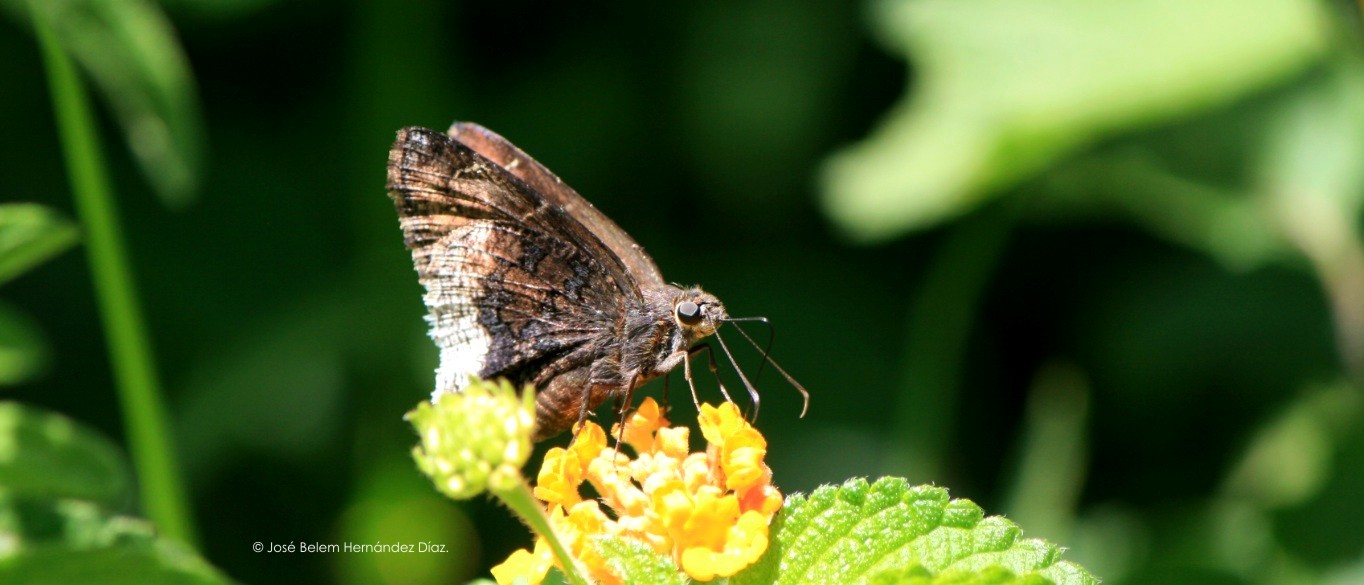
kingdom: Animalia
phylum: Arthropoda
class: Insecta
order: Lepidoptera
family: Hesperiidae
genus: Thorybes
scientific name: Thorybes casica
